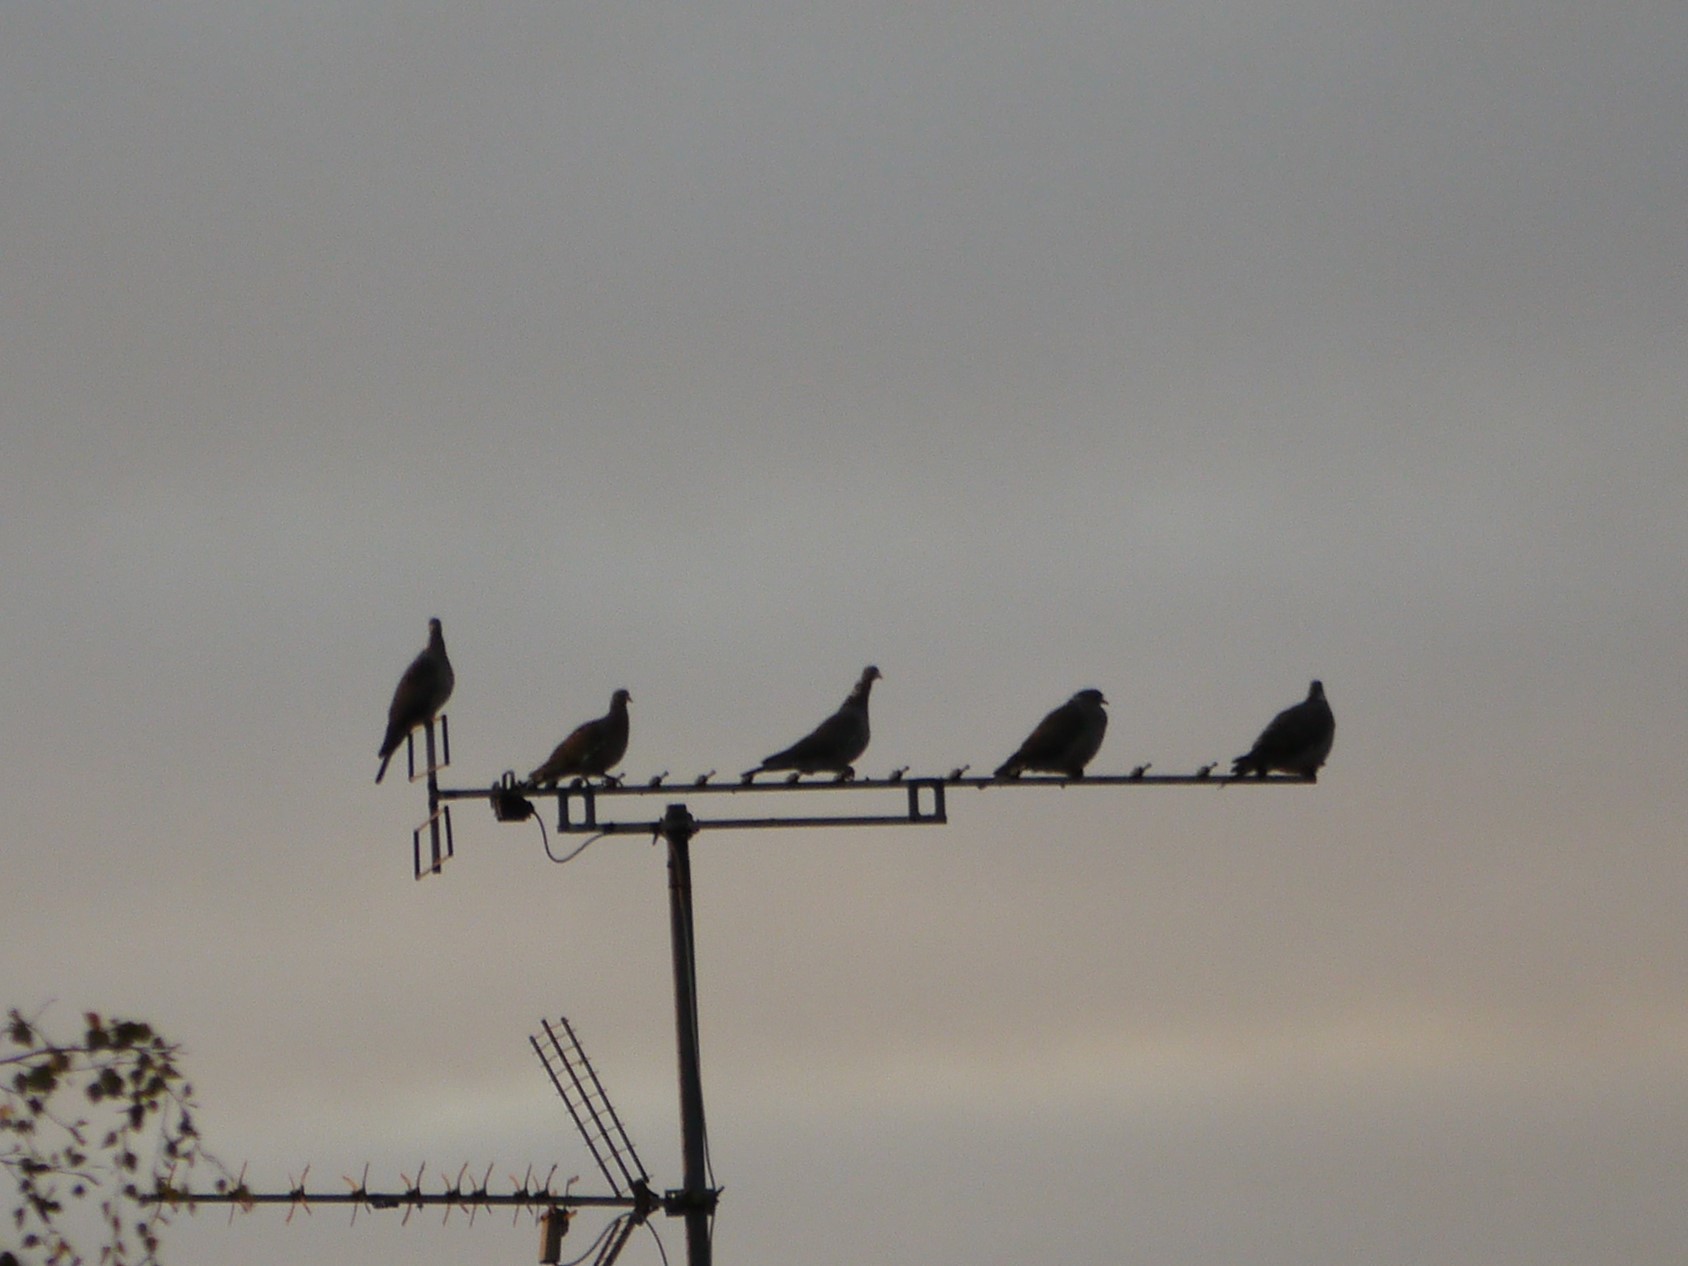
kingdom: Animalia
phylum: Chordata
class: Aves
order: Columbiformes
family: Columbidae
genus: Columba
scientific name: Columba palumbus
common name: Common wood pigeon
